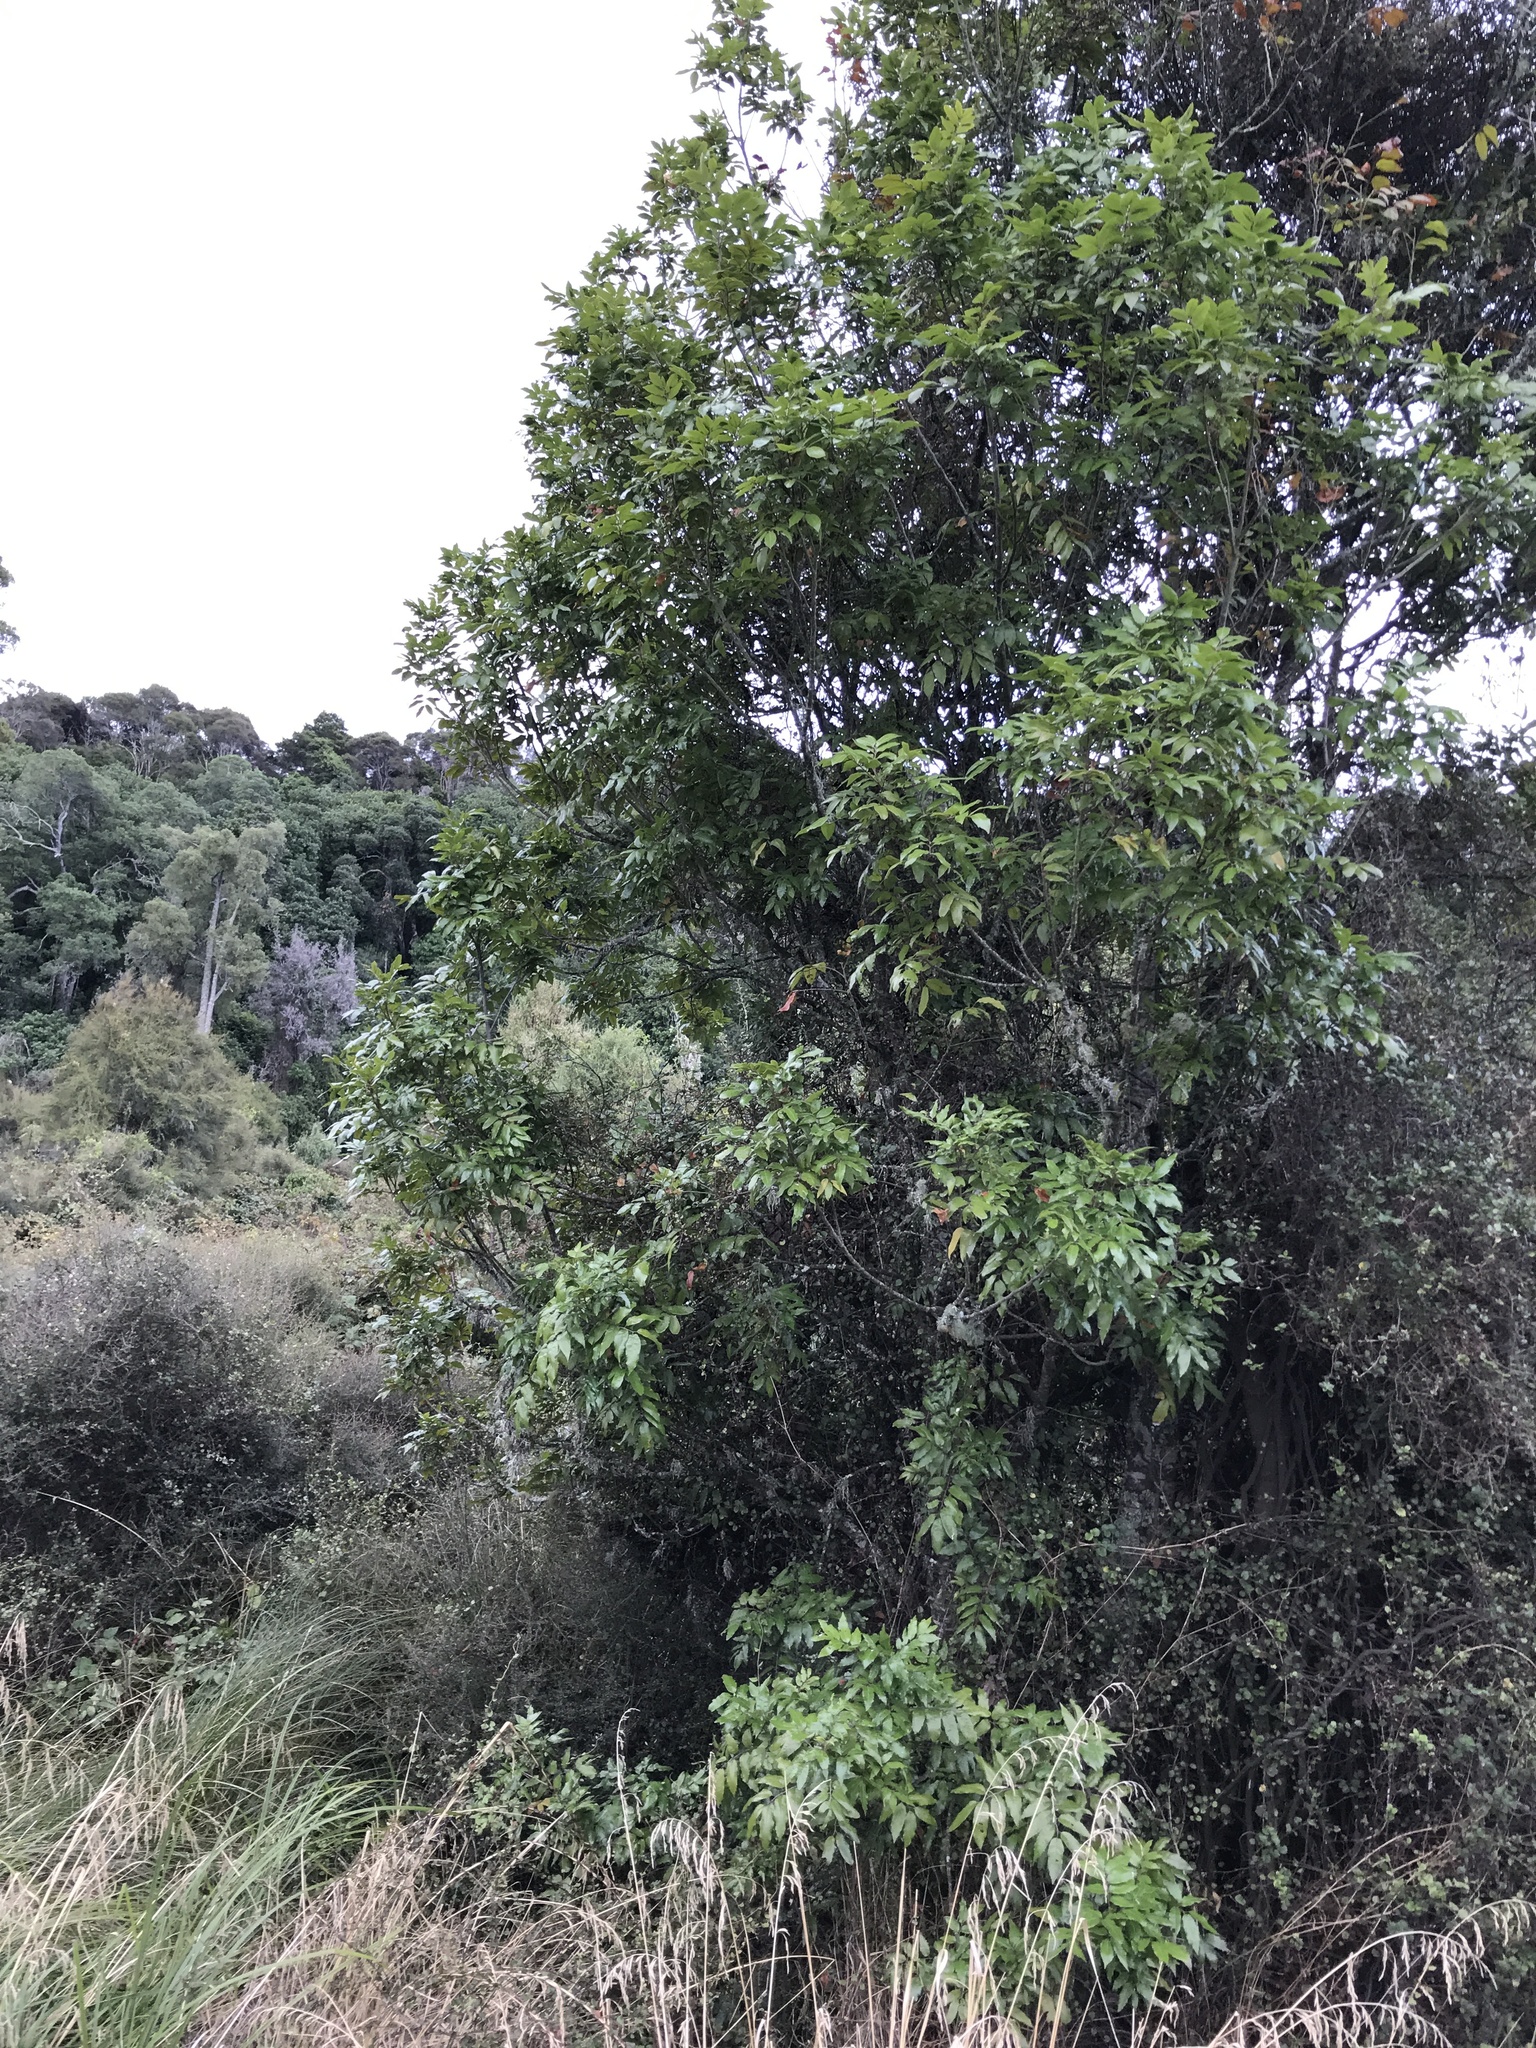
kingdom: Plantae
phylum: Tracheophyta
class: Magnoliopsida
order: Sapindales
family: Sapindaceae
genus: Alectryon
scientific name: Alectryon excelsus
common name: Three kings titoki
